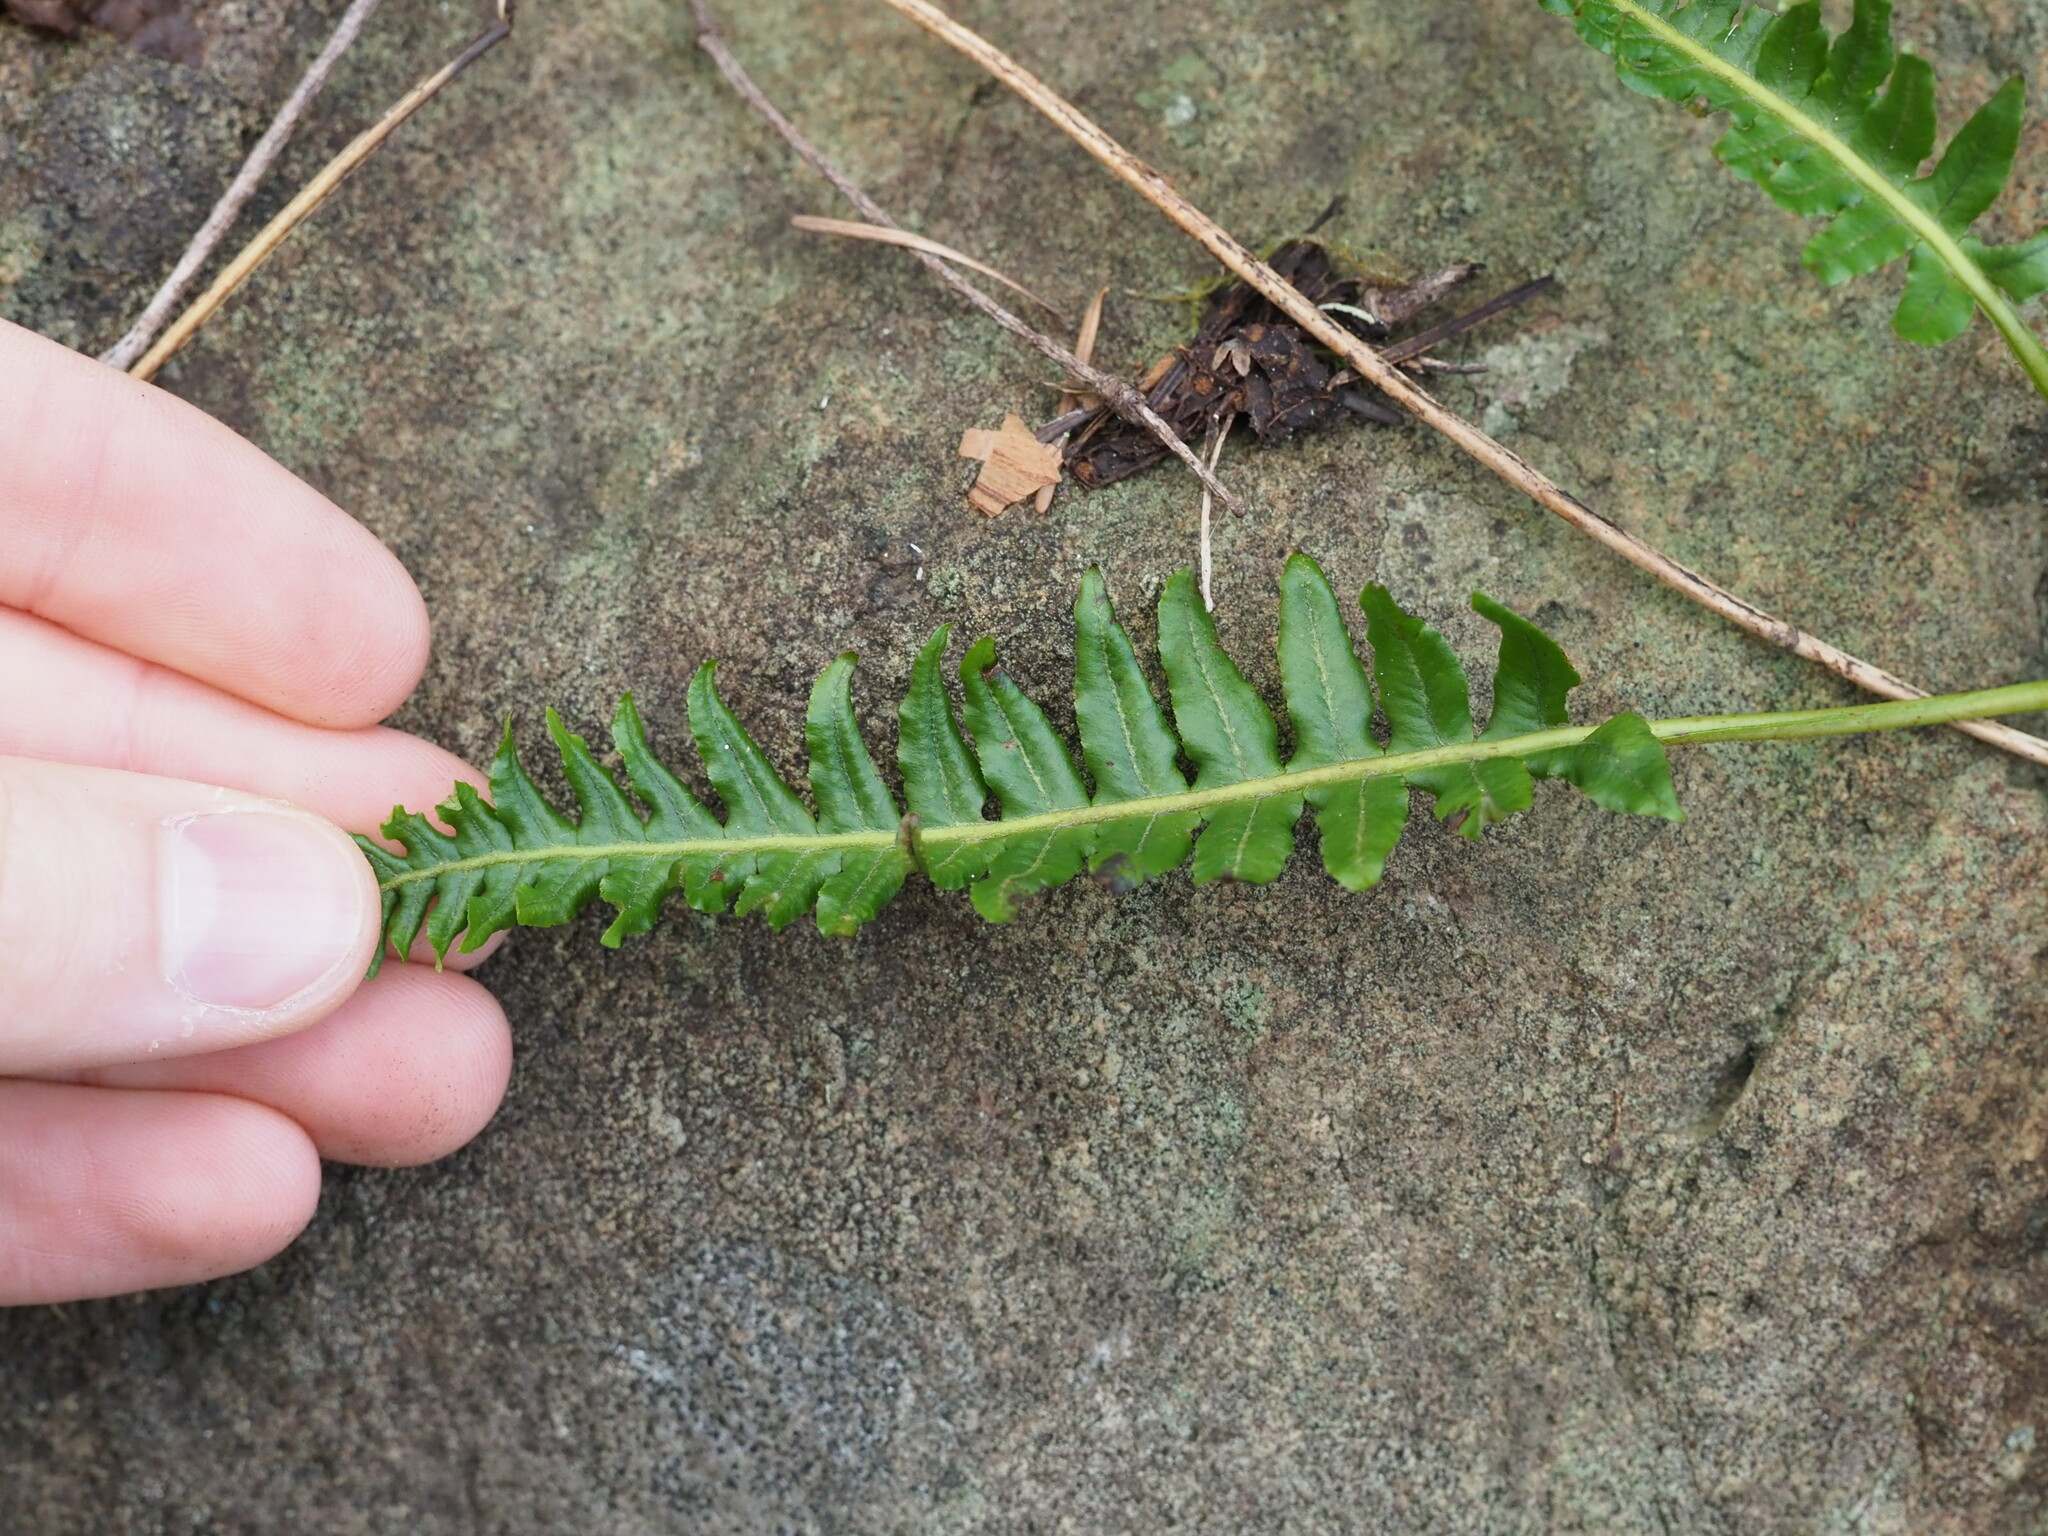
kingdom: Plantae
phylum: Tracheophyta
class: Polypodiopsida
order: Polypodiales
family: Polypodiaceae
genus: Polypodium
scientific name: Polypodium glycyrrhiza
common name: Licorice fern
